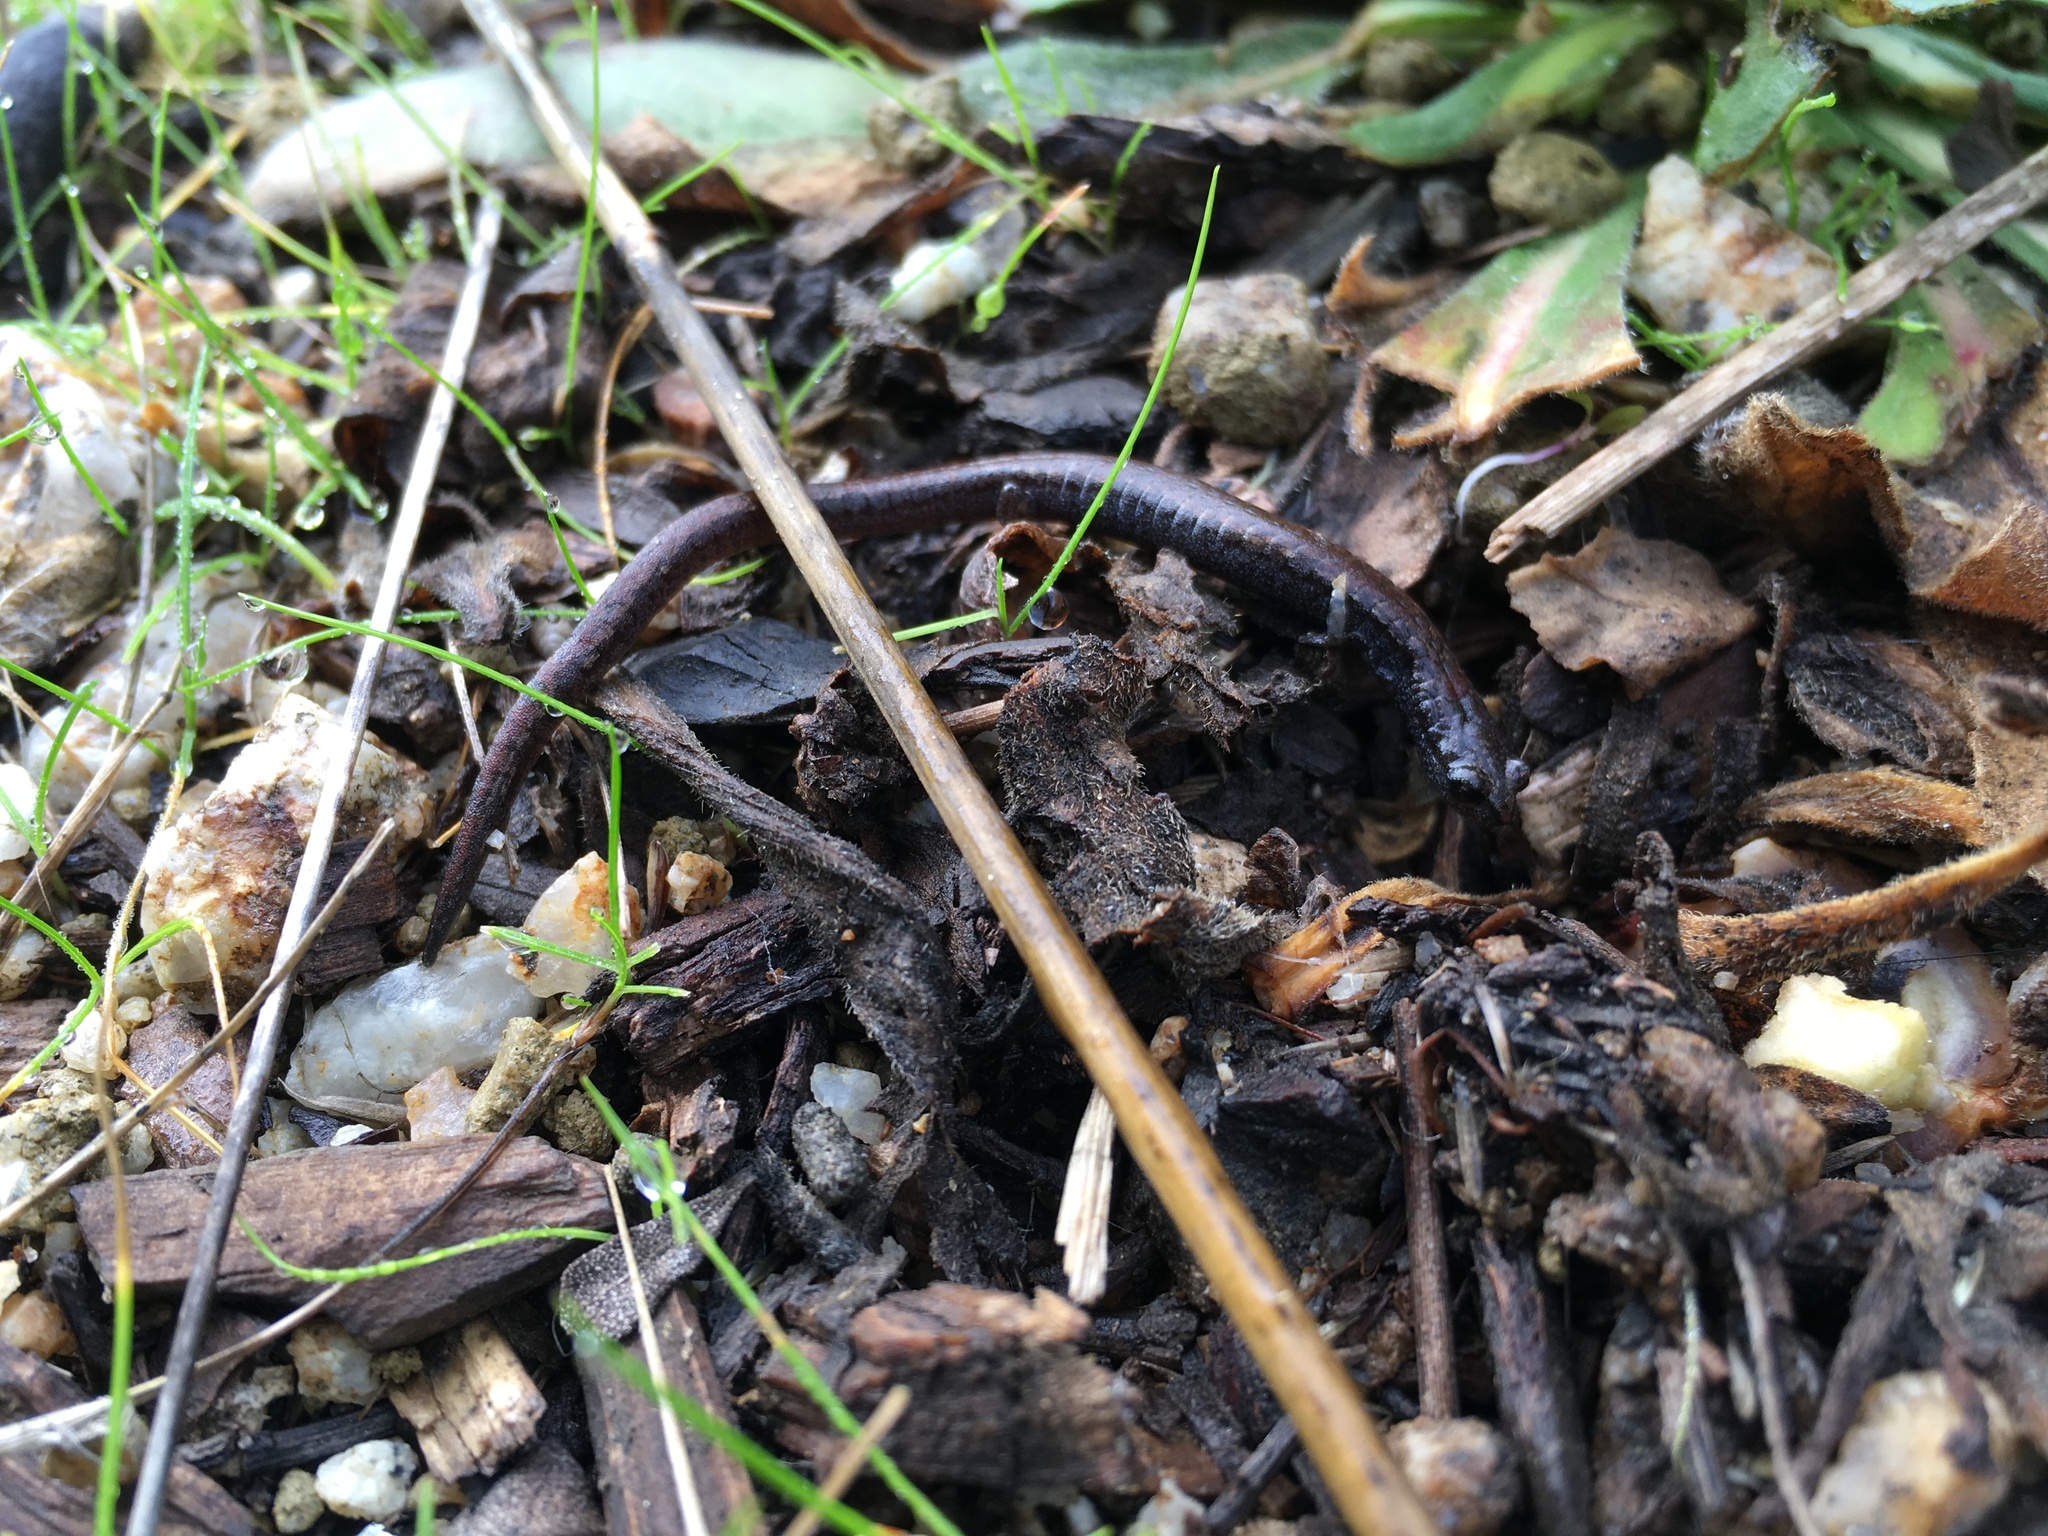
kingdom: Animalia
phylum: Chordata
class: Amphibia
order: Caudata
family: Plethodontidae
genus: Batrachoseps
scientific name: Batrachoseps attenuatus
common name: California slender salamander
